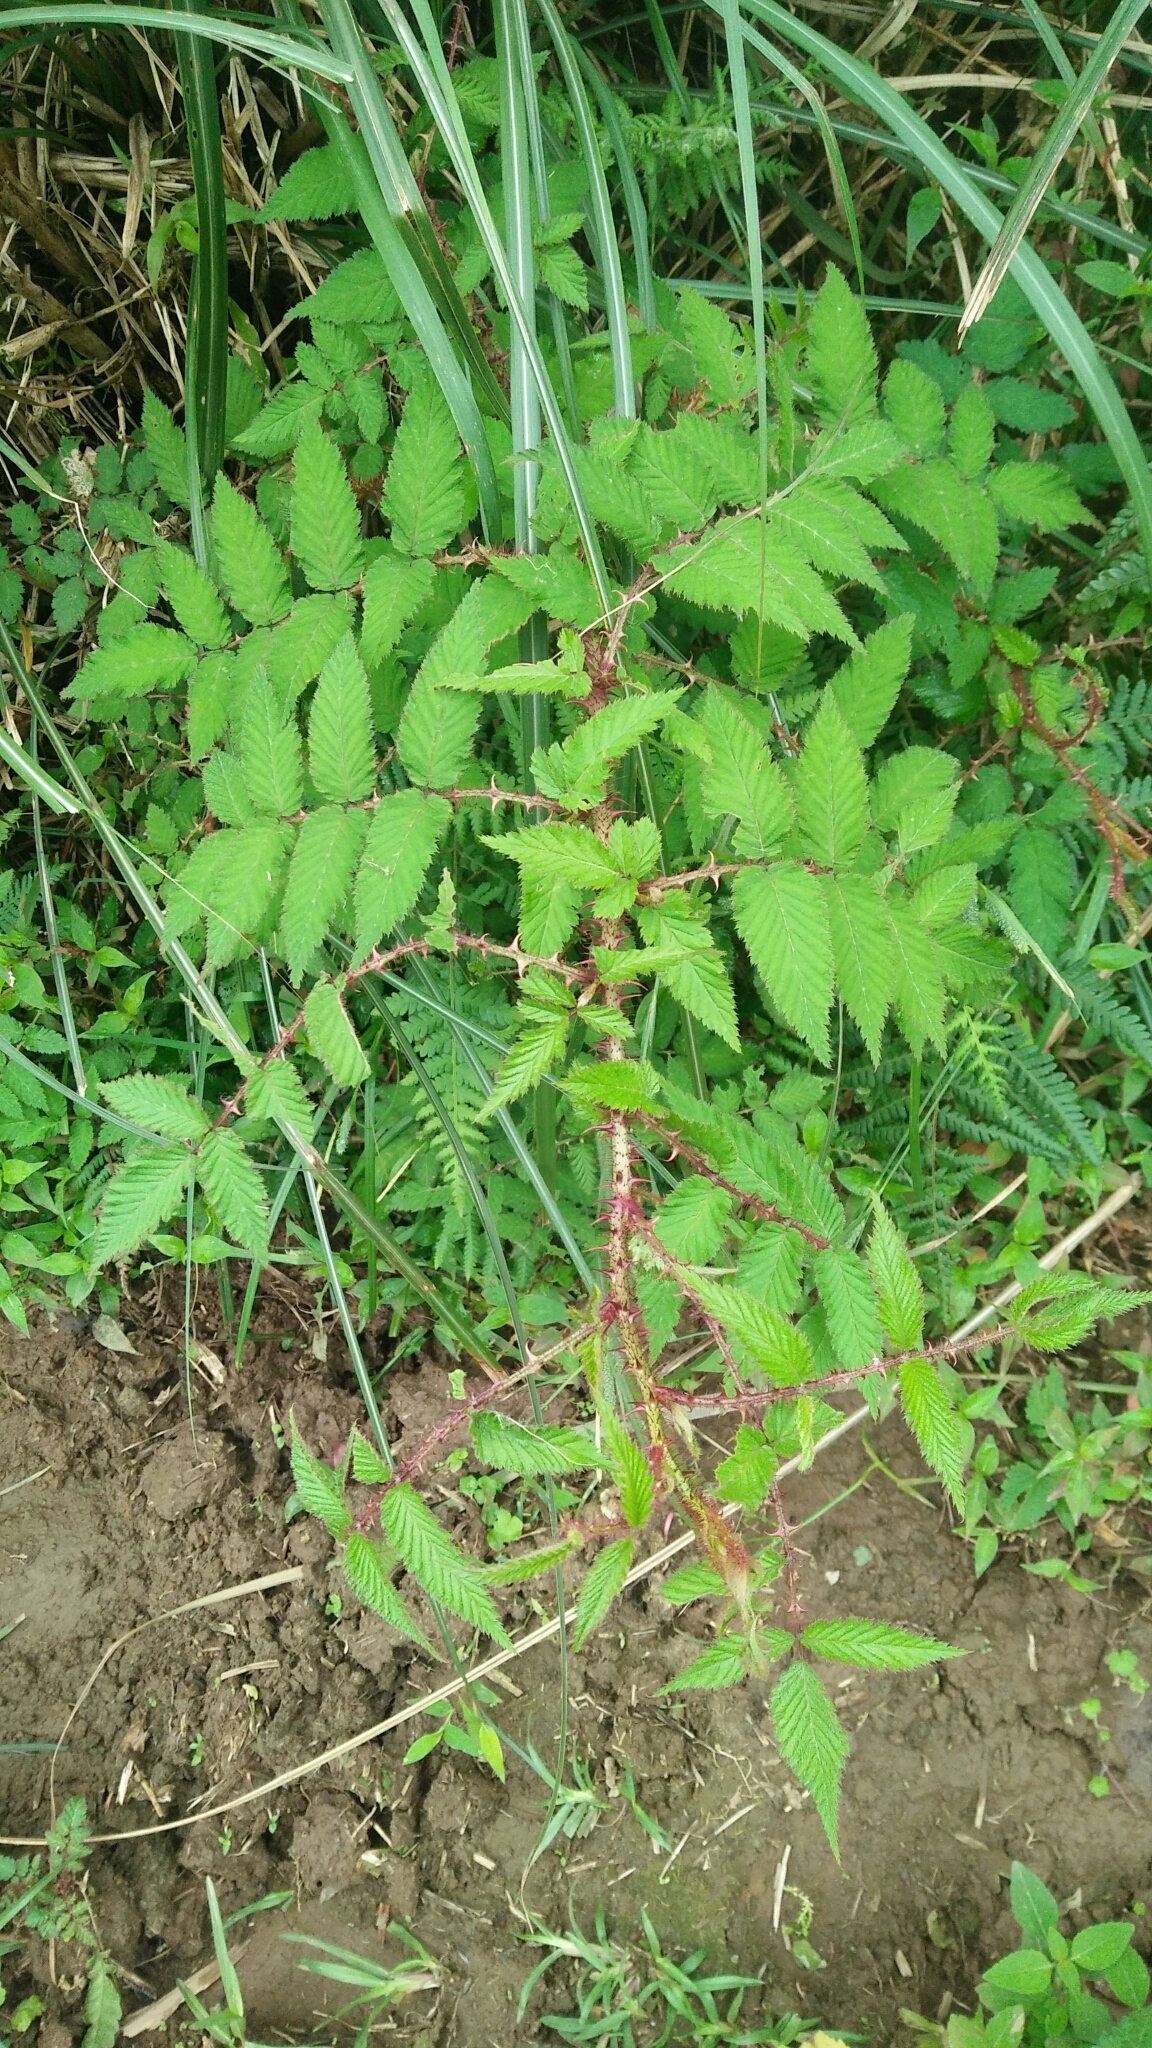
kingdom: Plantae
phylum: Tracheophyta
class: Magnoliopsida
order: Rosales
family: Rosaceae
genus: Rubus
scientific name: Rubus croceacanthus
